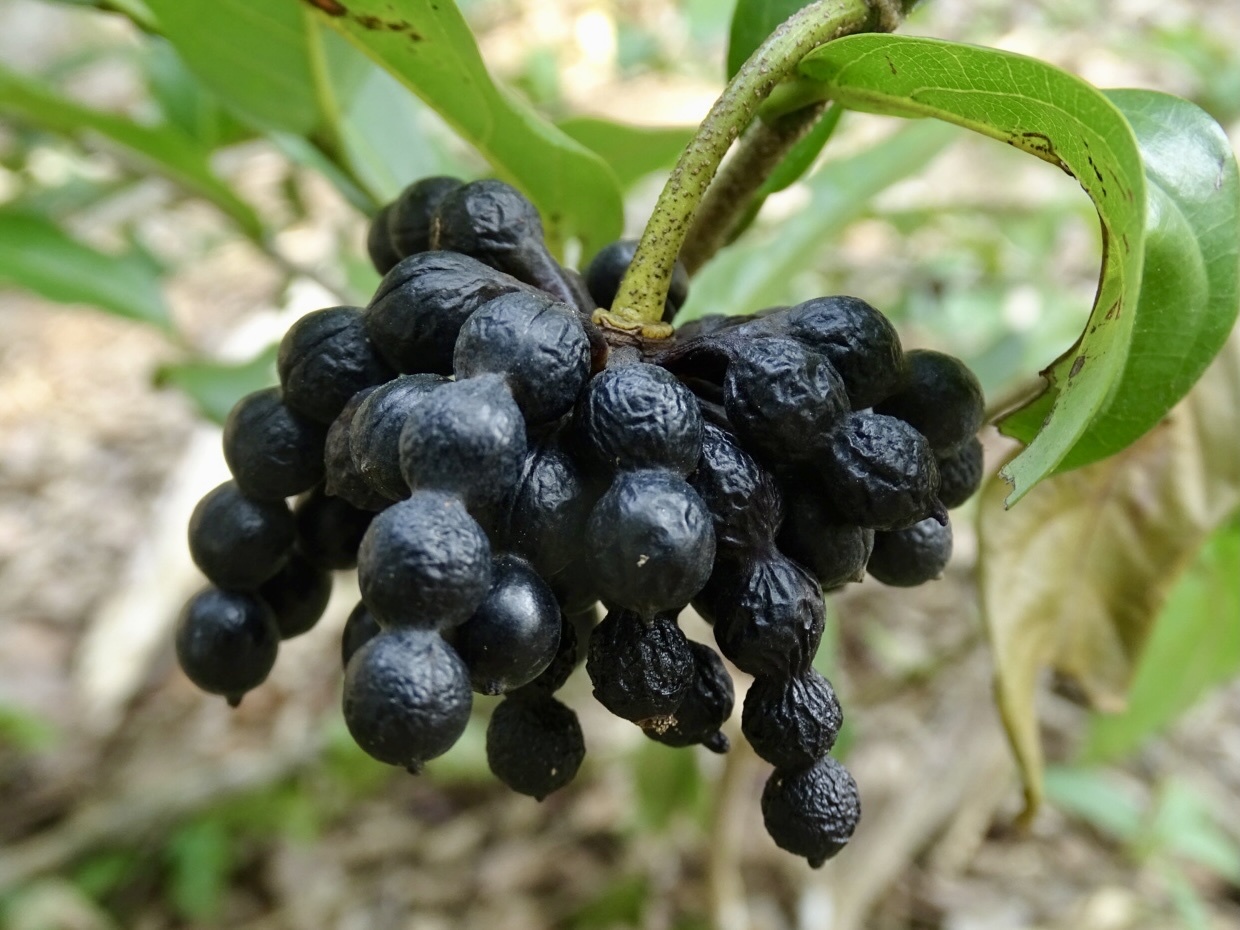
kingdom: Plantae
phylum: Tracheophyta
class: Magnoliopsida
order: Magnoliales
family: Annonaceae
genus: Desmos
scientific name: Desmos chinensis
